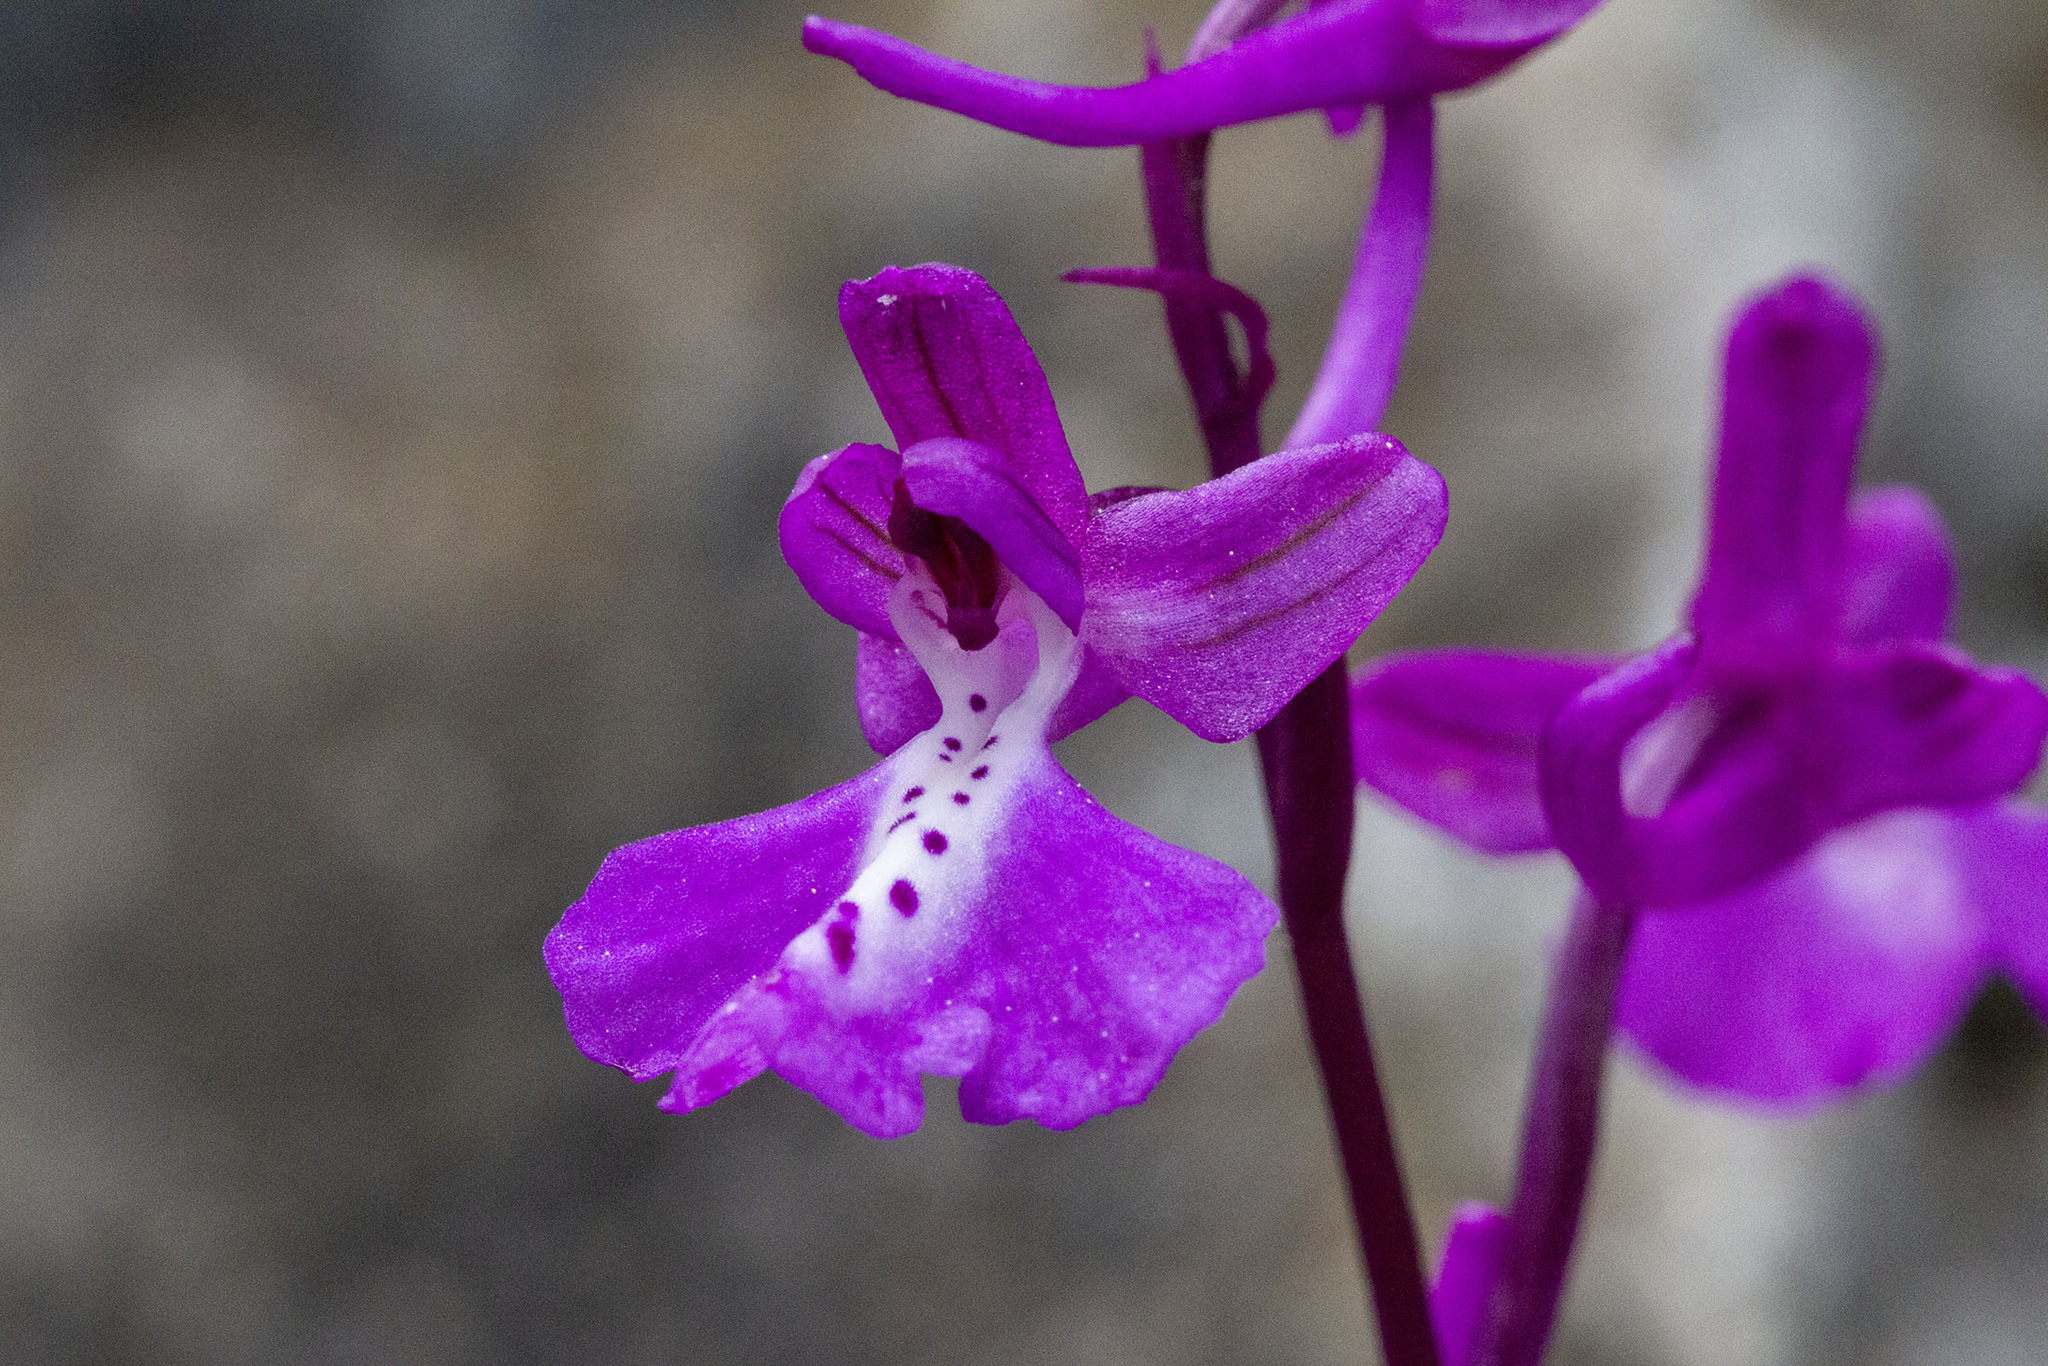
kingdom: Plantae
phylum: Tracheophyta
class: Liliopsida
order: Asparagales
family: Orchidaceae
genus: Orchis
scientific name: Orchis anatolica
